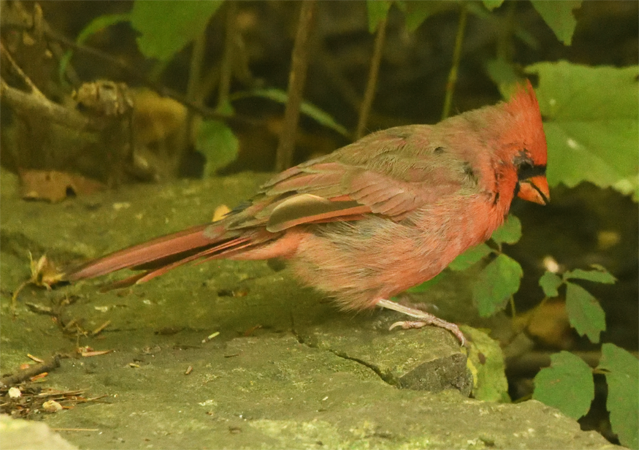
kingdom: Animalia
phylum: Chordata
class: Aves
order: Passeriformes
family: Cardinalidae
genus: Cardinalis
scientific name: Cardinalis cardinalis
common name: Northern cardinal
